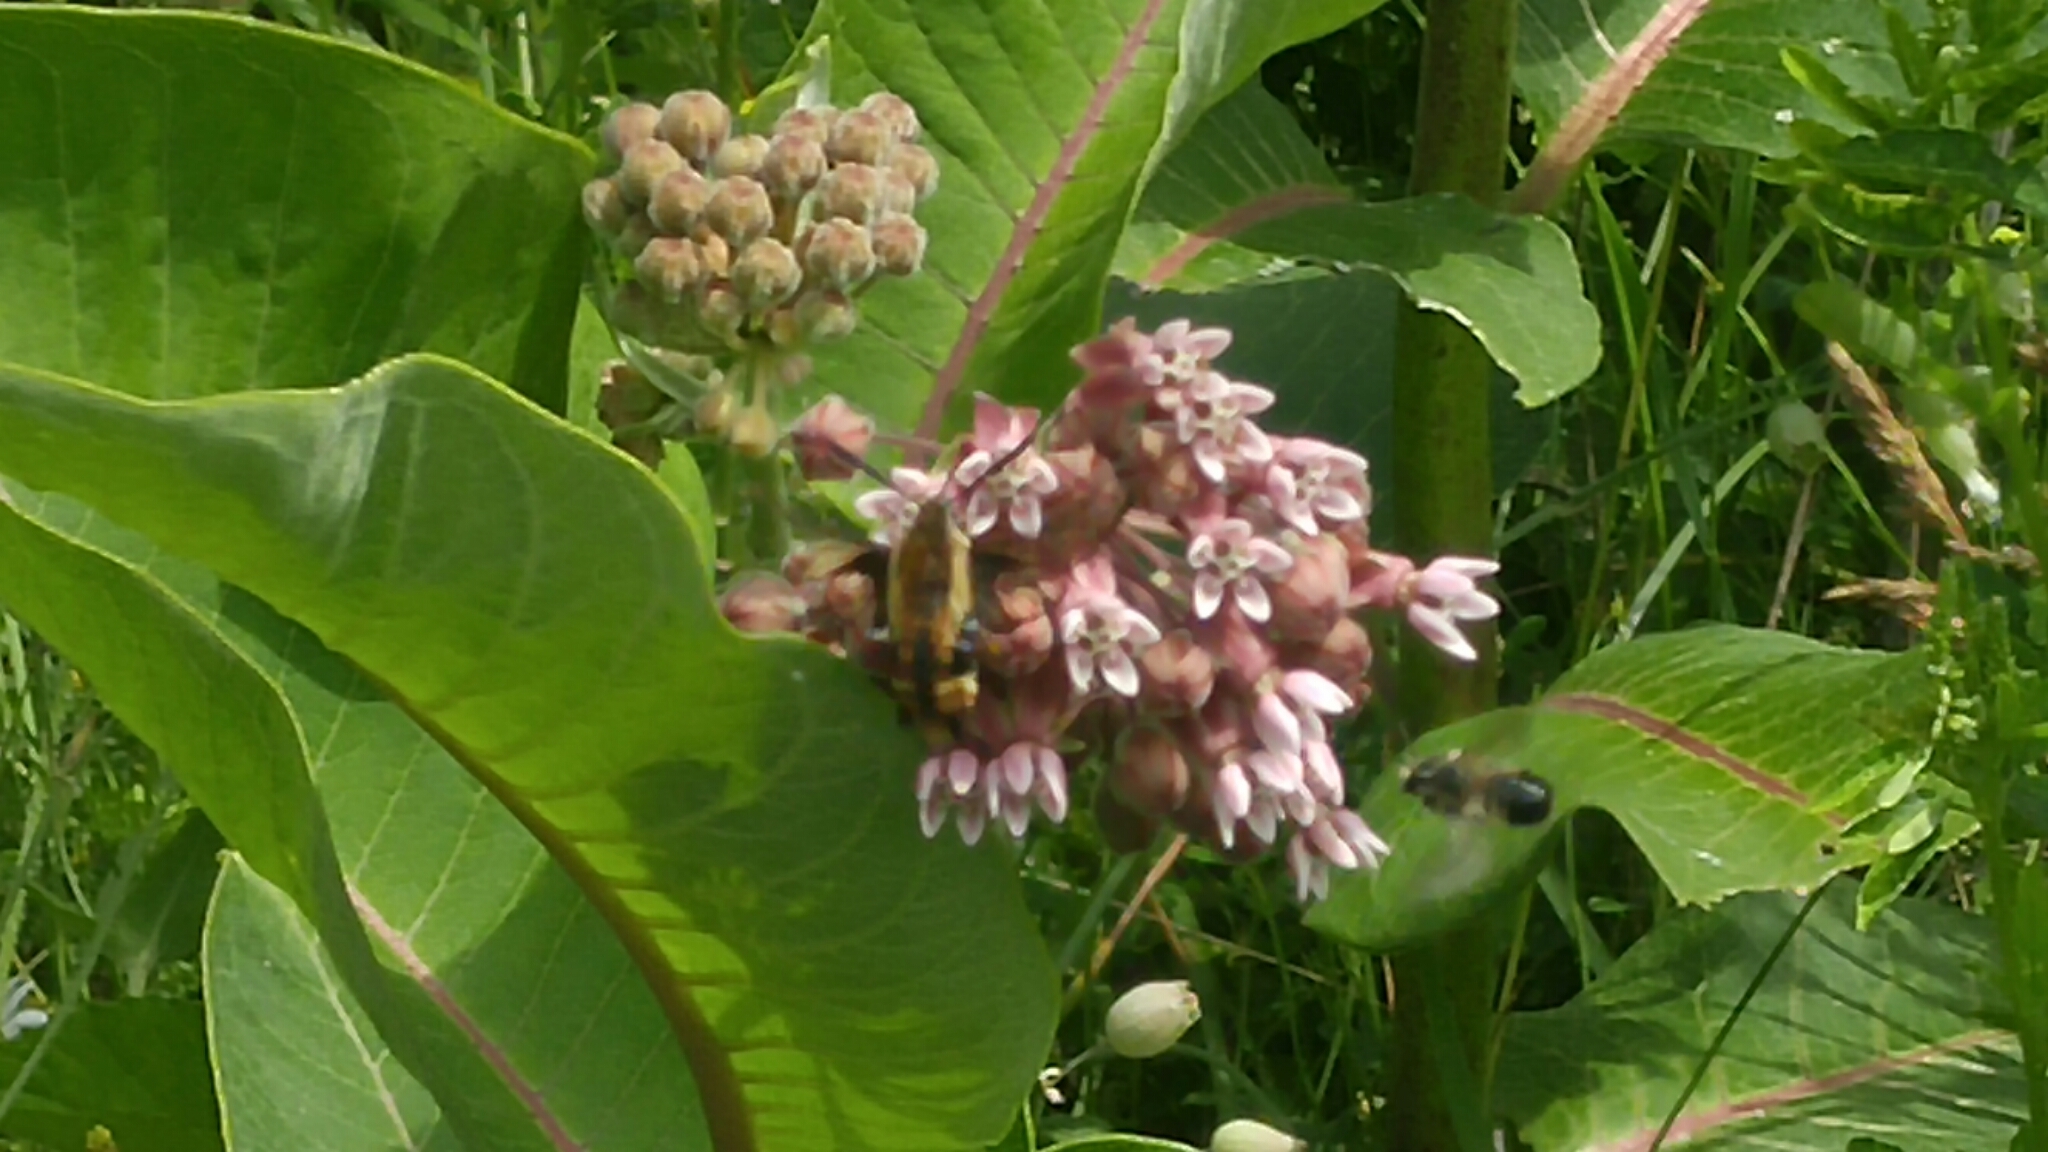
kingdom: Animalia
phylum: Arthropoda
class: Insecta
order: Lepidoptera
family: Sphingidae
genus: Hemaris
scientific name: Hemaris diffinis
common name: Bumblebee moth
